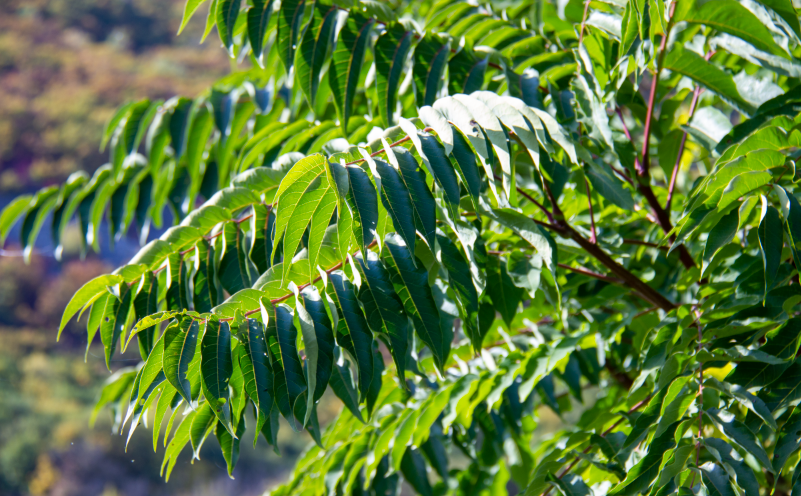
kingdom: Plantae
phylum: Tracheophyta
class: Magnoliopsida
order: Sapindales
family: Simaroubaceae
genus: Ailanthus
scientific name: Ailanthus altissima
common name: Tree-of-heaven
